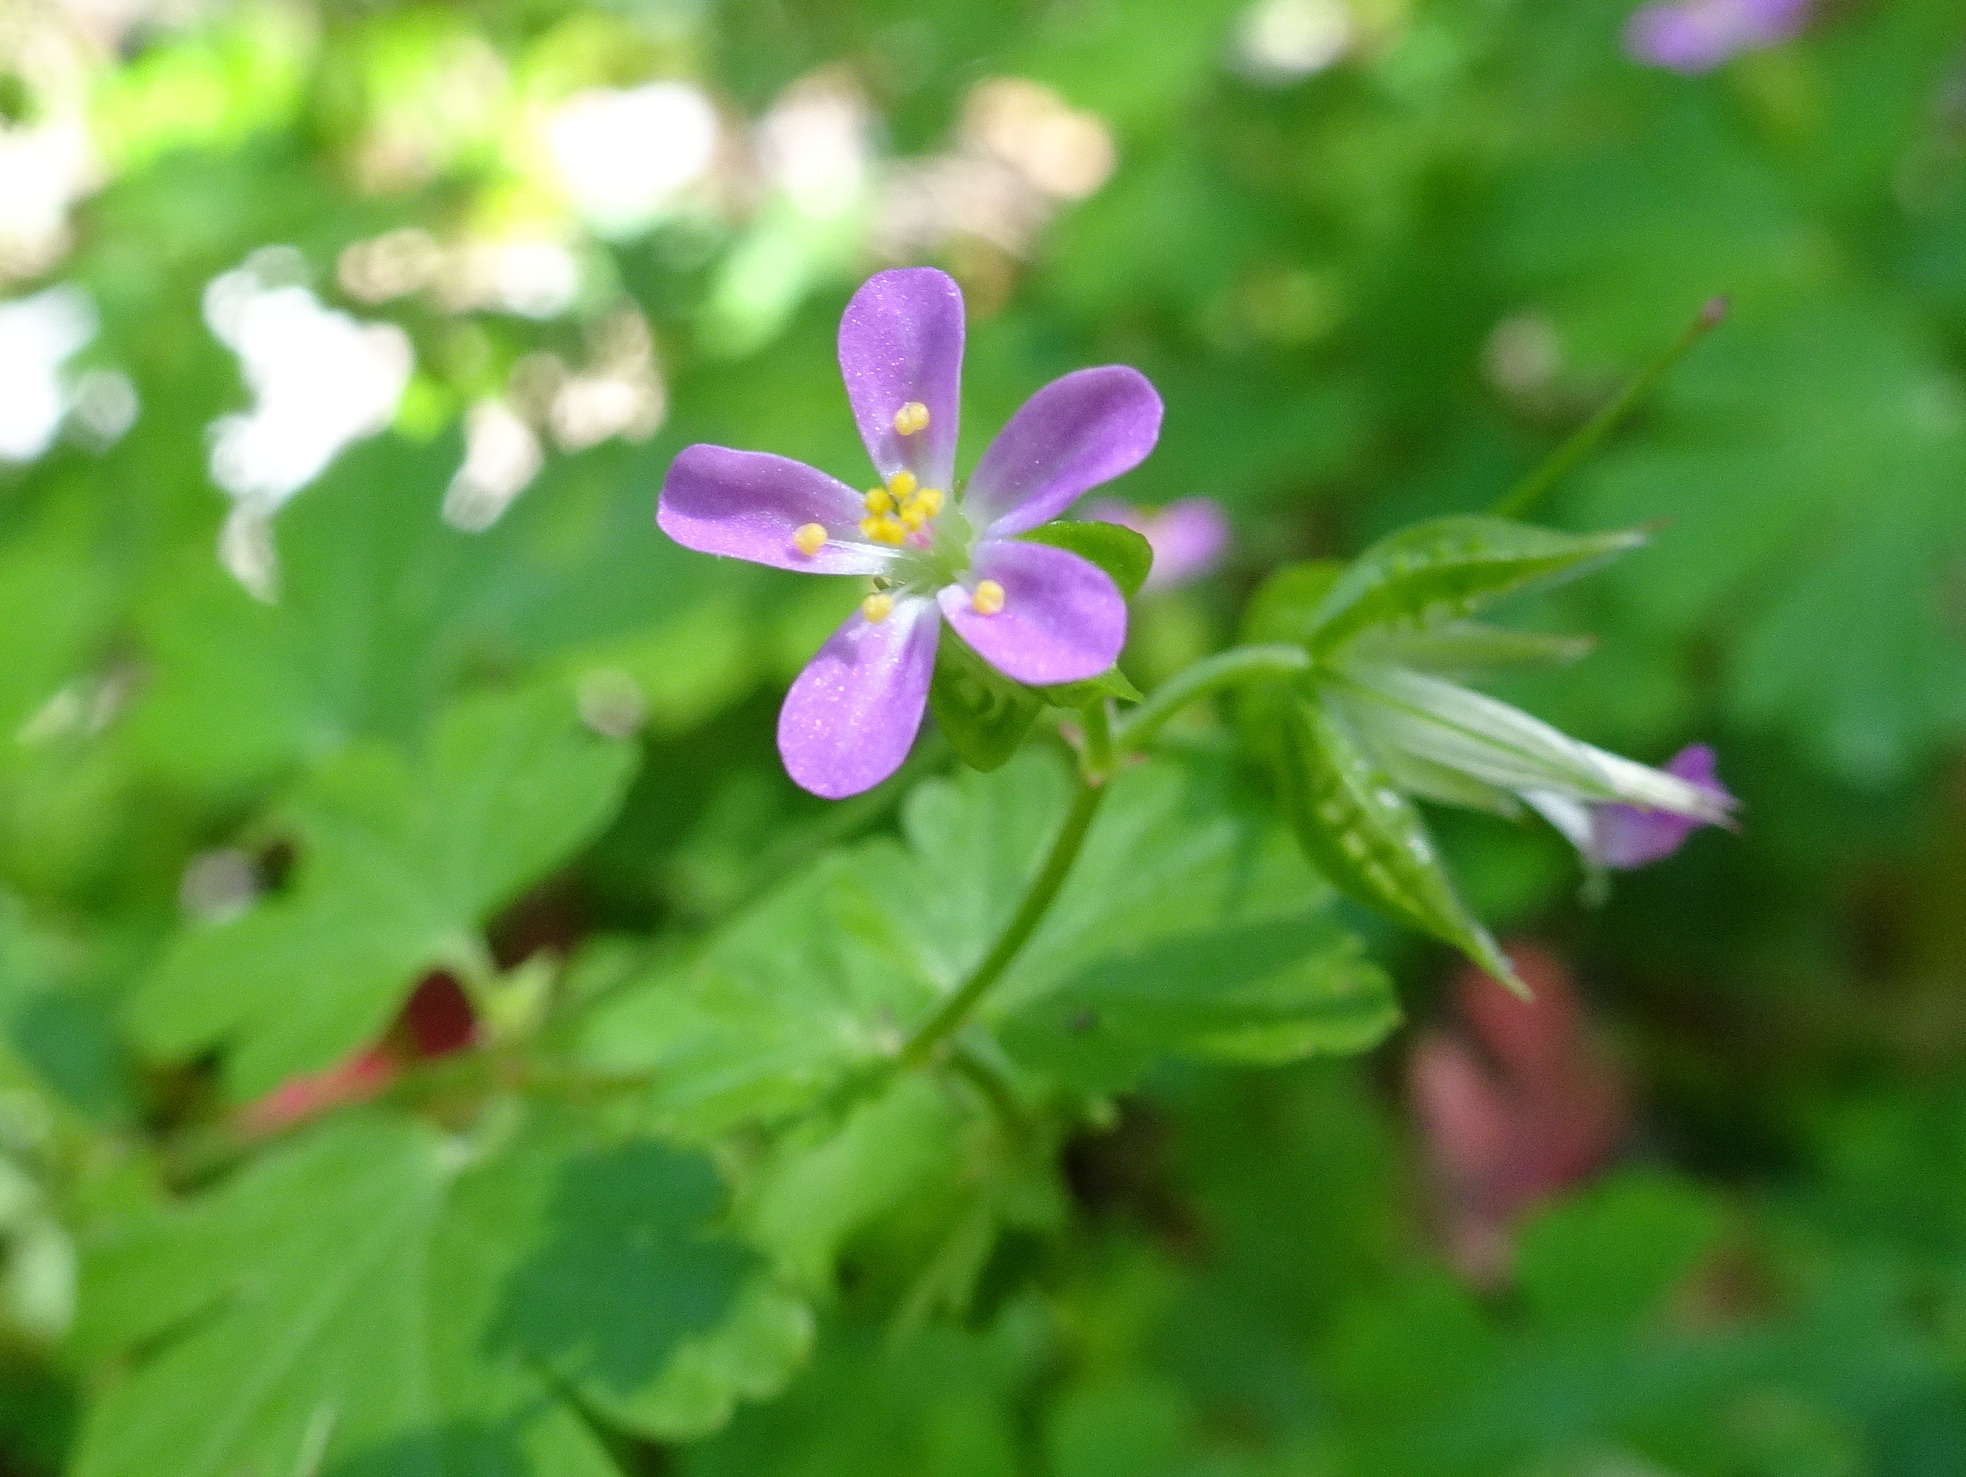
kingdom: Plantae
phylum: Tracheophyta
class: Magnoliopsida
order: Geraniales
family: Geraniaceae
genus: Geranium
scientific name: Geranium lucidum
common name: Shining crane's-bill
